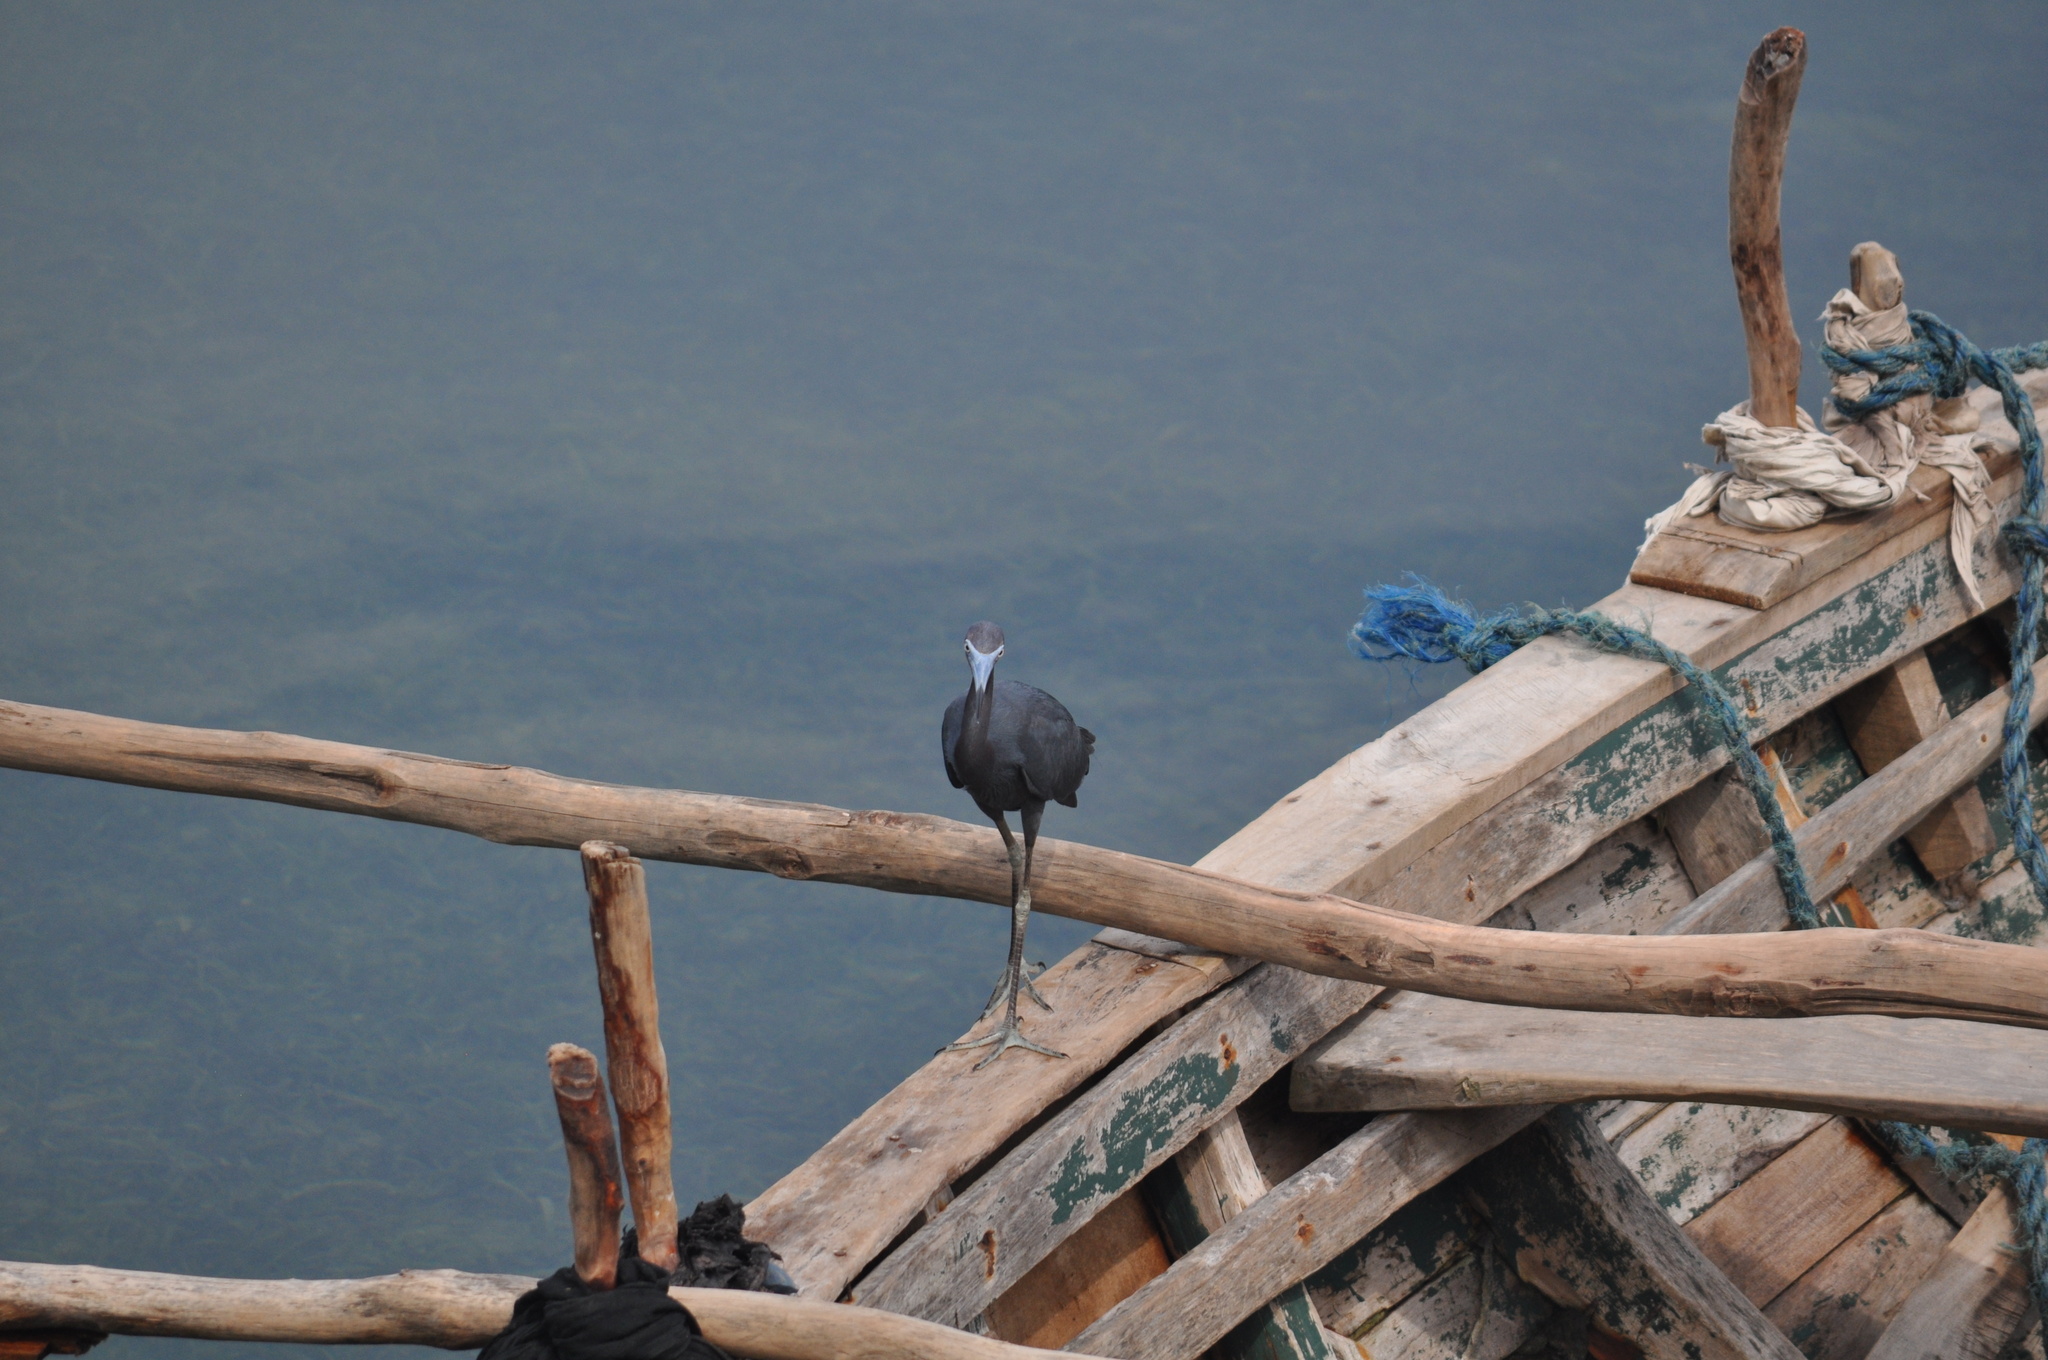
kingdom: Animalia
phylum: Chordata
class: Aves
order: Pelecaniformes
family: Ardeidae
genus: Egretta
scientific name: Egretta caerulea
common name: Little blue heron
